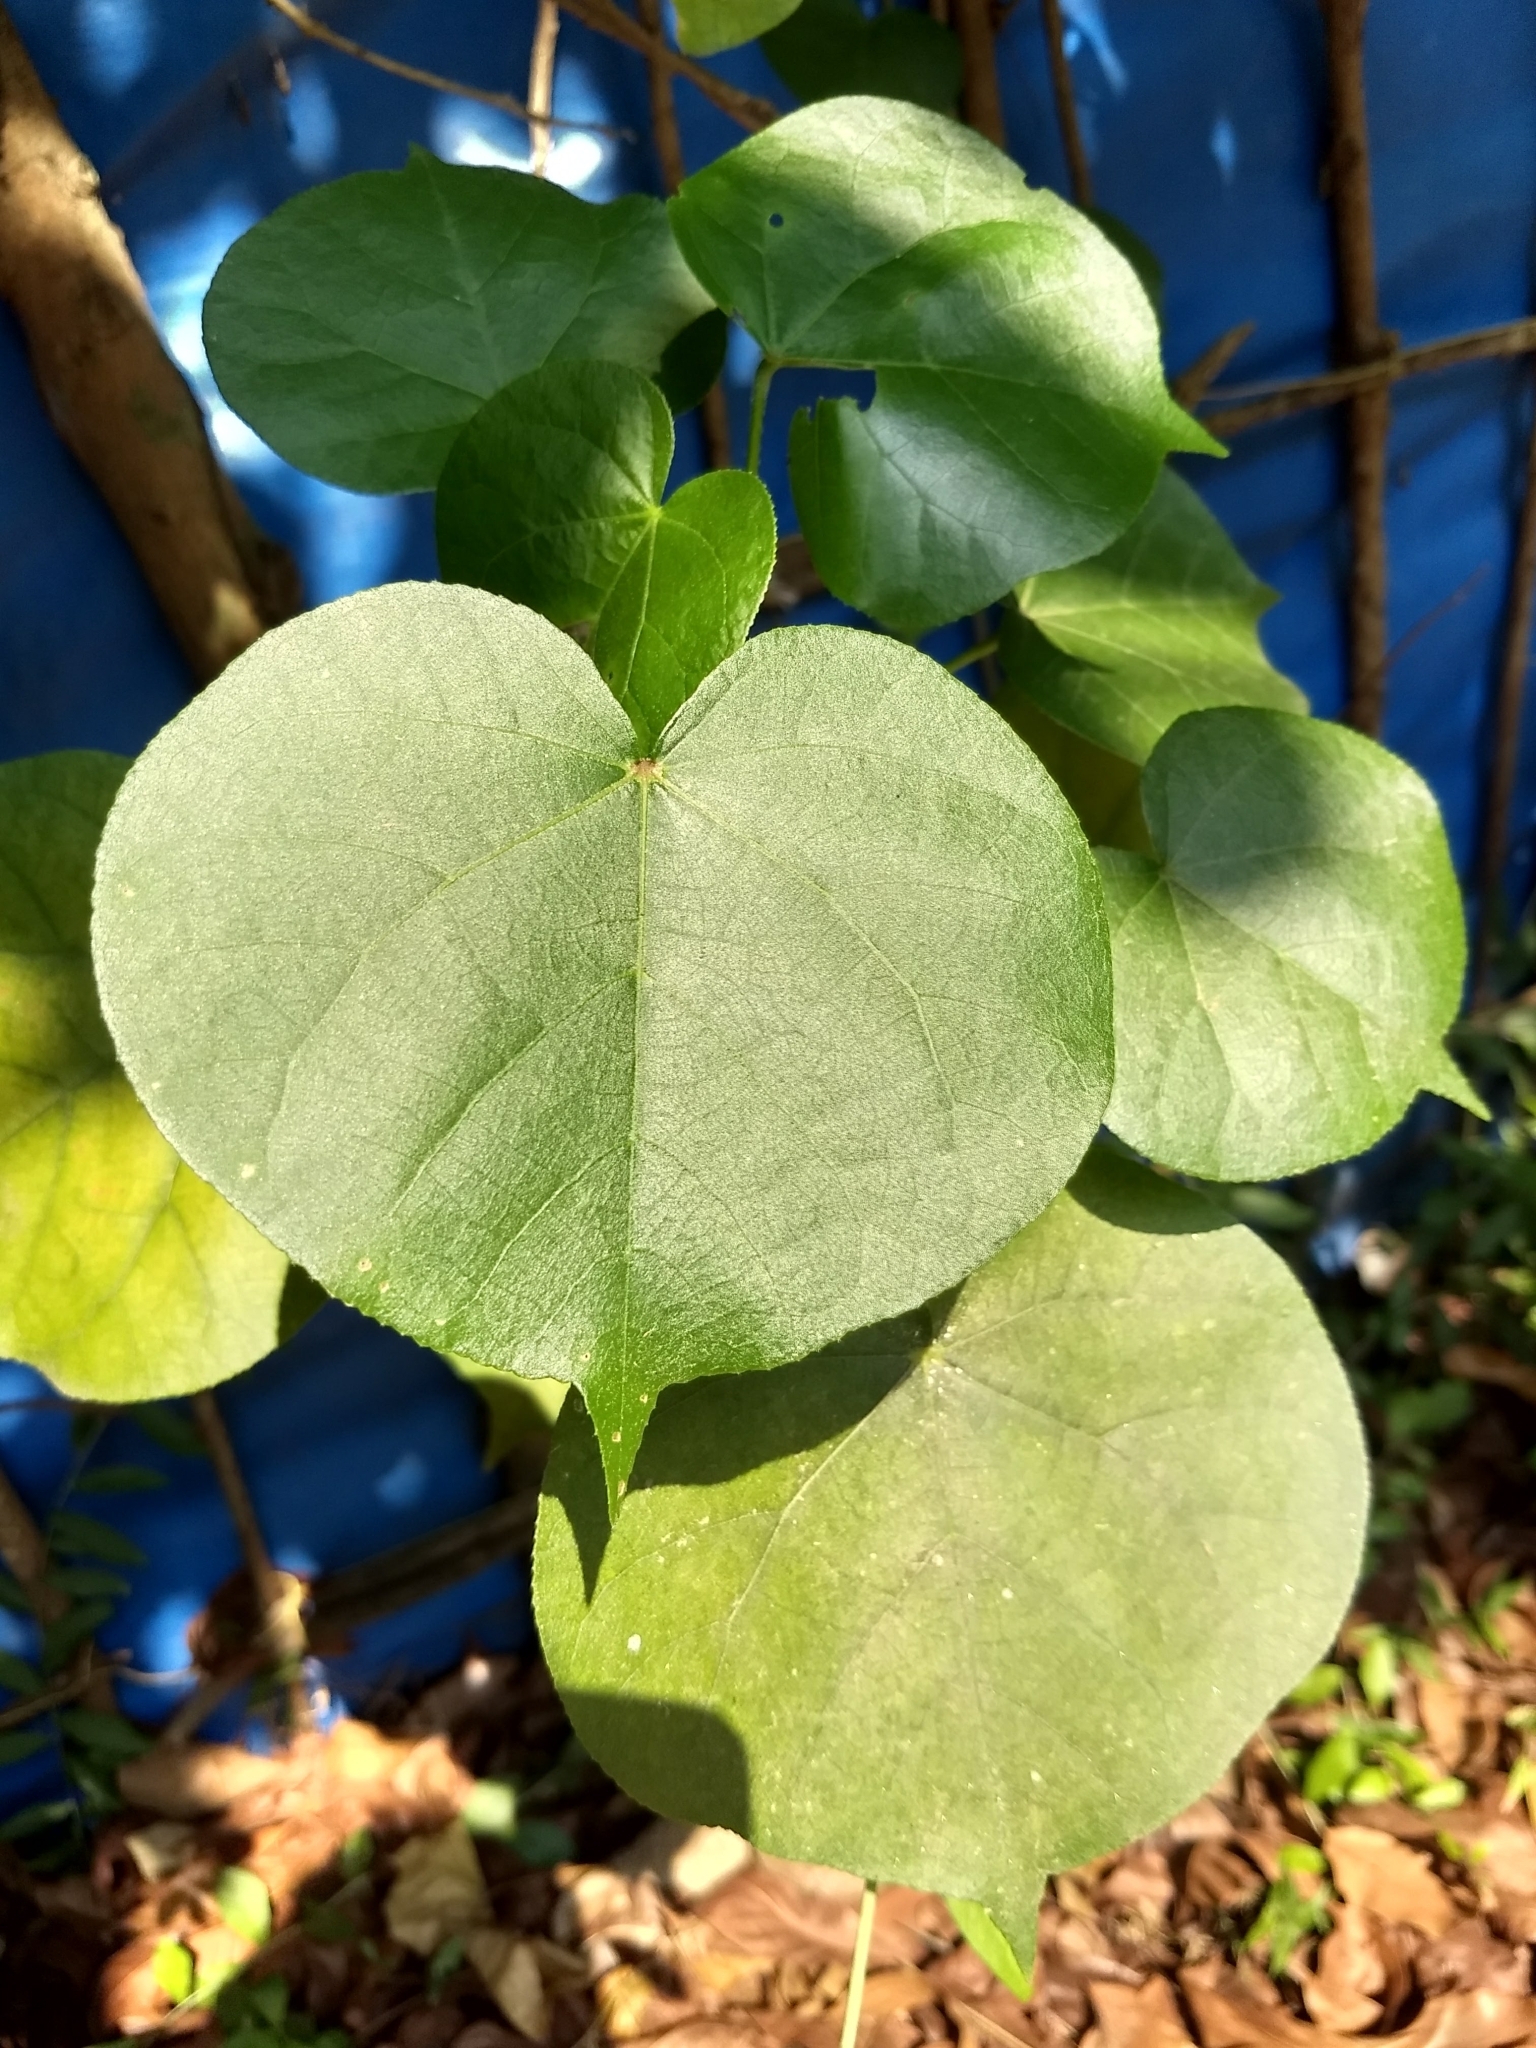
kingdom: Plantae
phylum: Tracheophyta
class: Magnoliopsida
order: Malvales
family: Malvaceae
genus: Talipariti
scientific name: Talipariti tiliaceum
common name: Sea hibiscus
